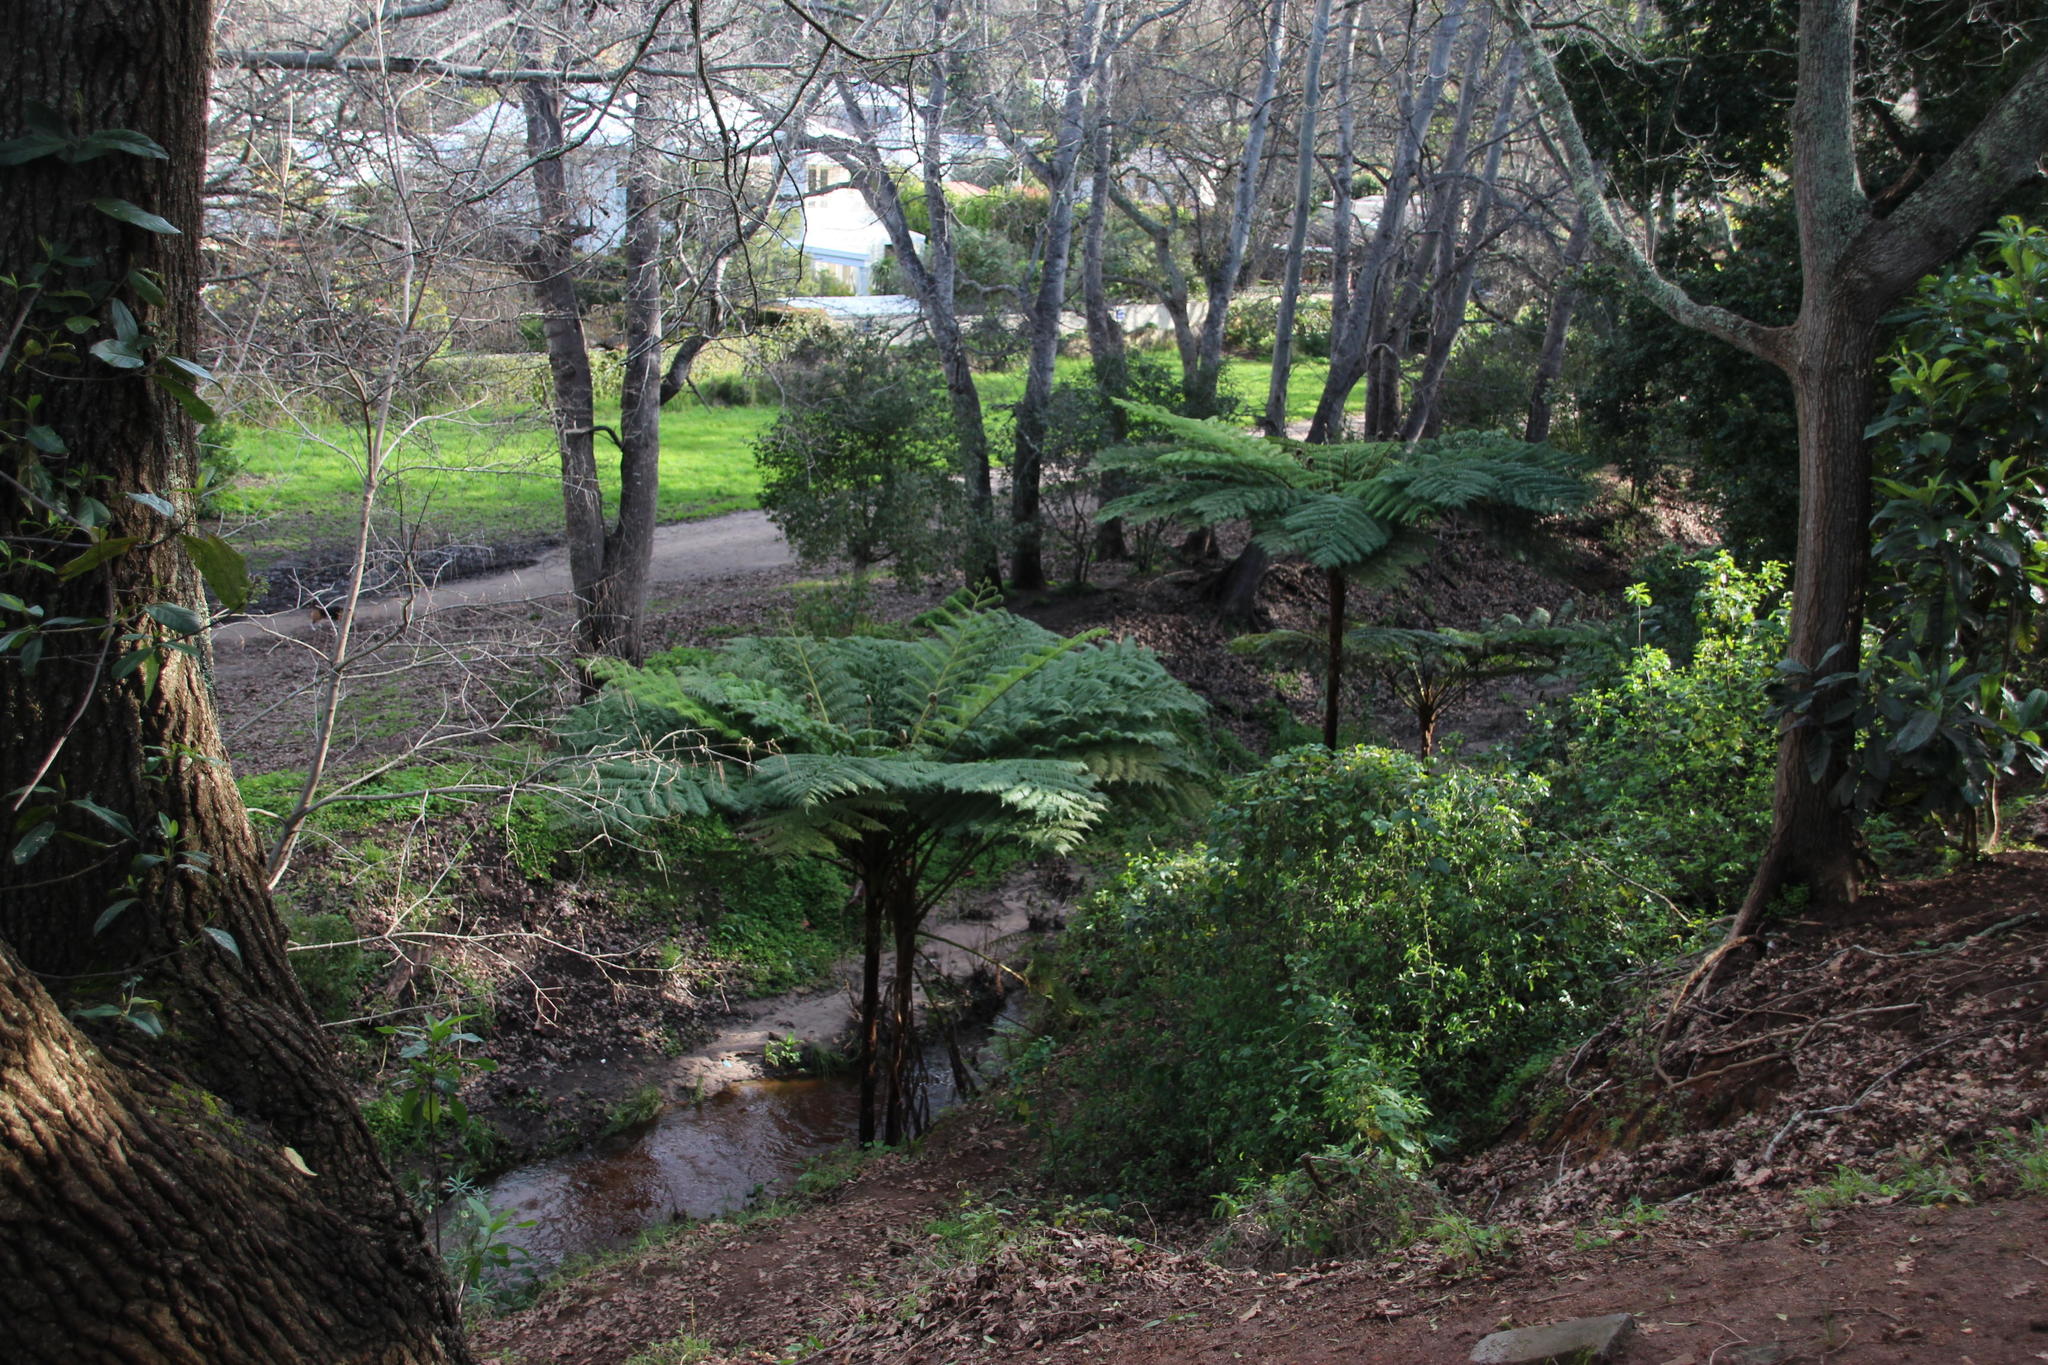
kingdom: Plantae
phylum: Tracheophyta
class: Polypodiopsida
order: Cyatheales
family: Cyatheaceae
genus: Sphaeropteris
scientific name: Sphaeropteris cooperi
